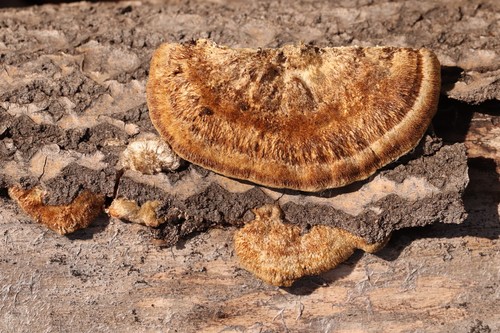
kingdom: Fungi
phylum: Basidiomycota
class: Agaricomycetes
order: Polyporales
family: Polyporaceae
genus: Trametes
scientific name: Trametes trogii
